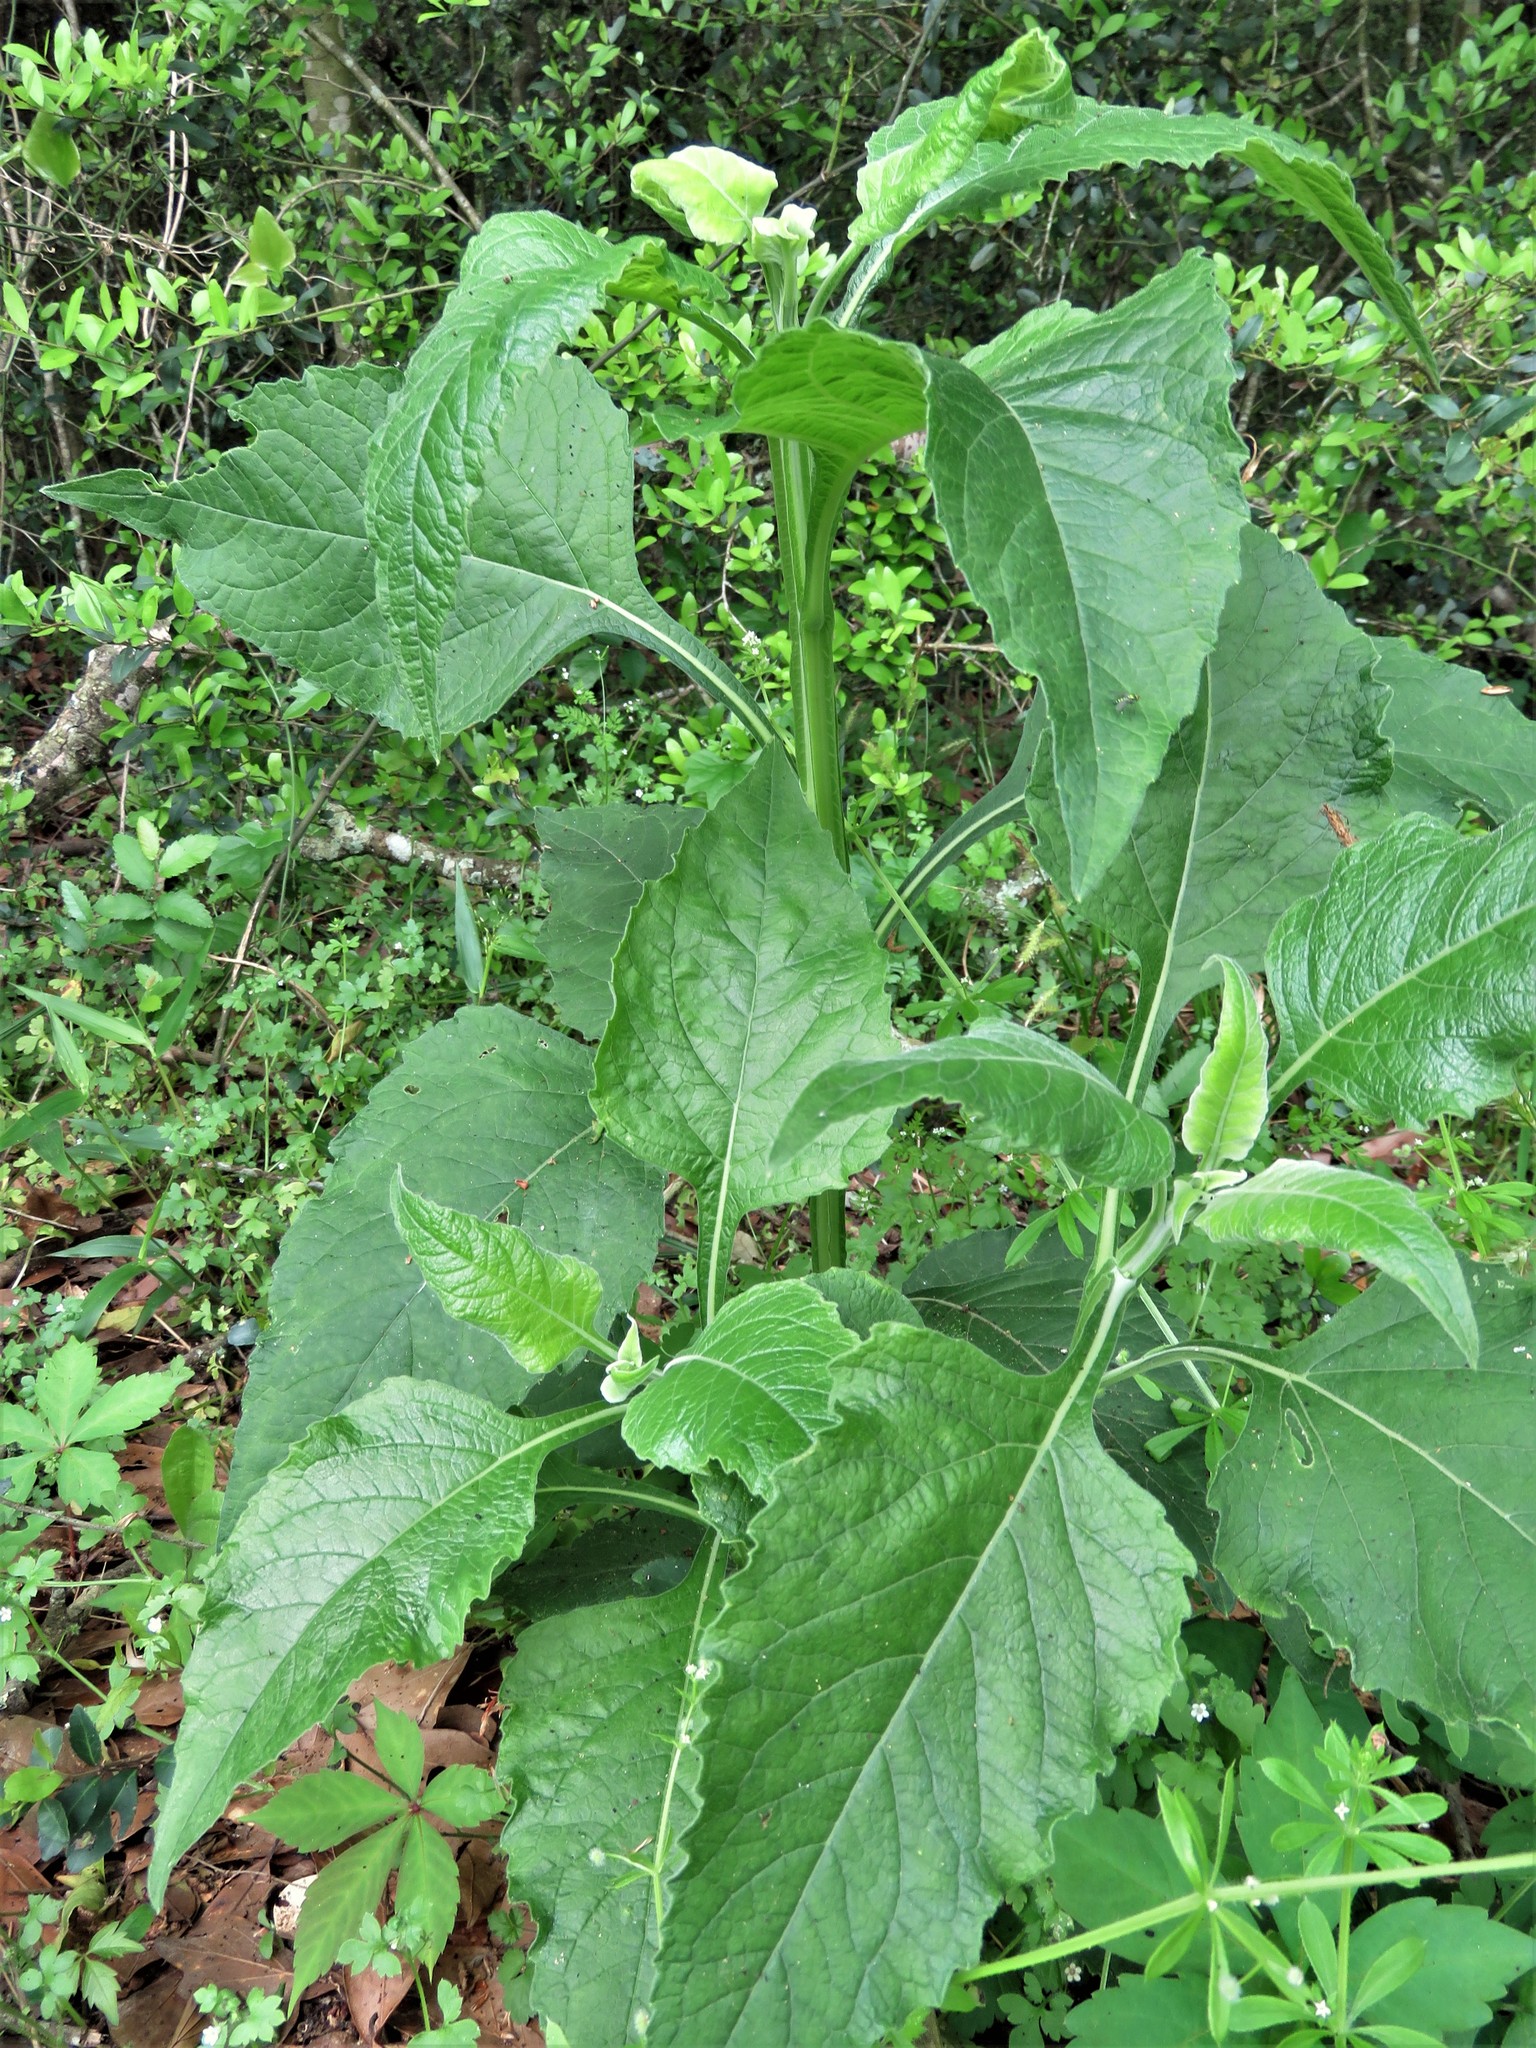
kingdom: Plantae
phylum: Tracheophyta
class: Magnoliopsida
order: Asterales
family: Asteraceae
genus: Verbesina
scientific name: Verbesina virginica
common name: Frostweed
